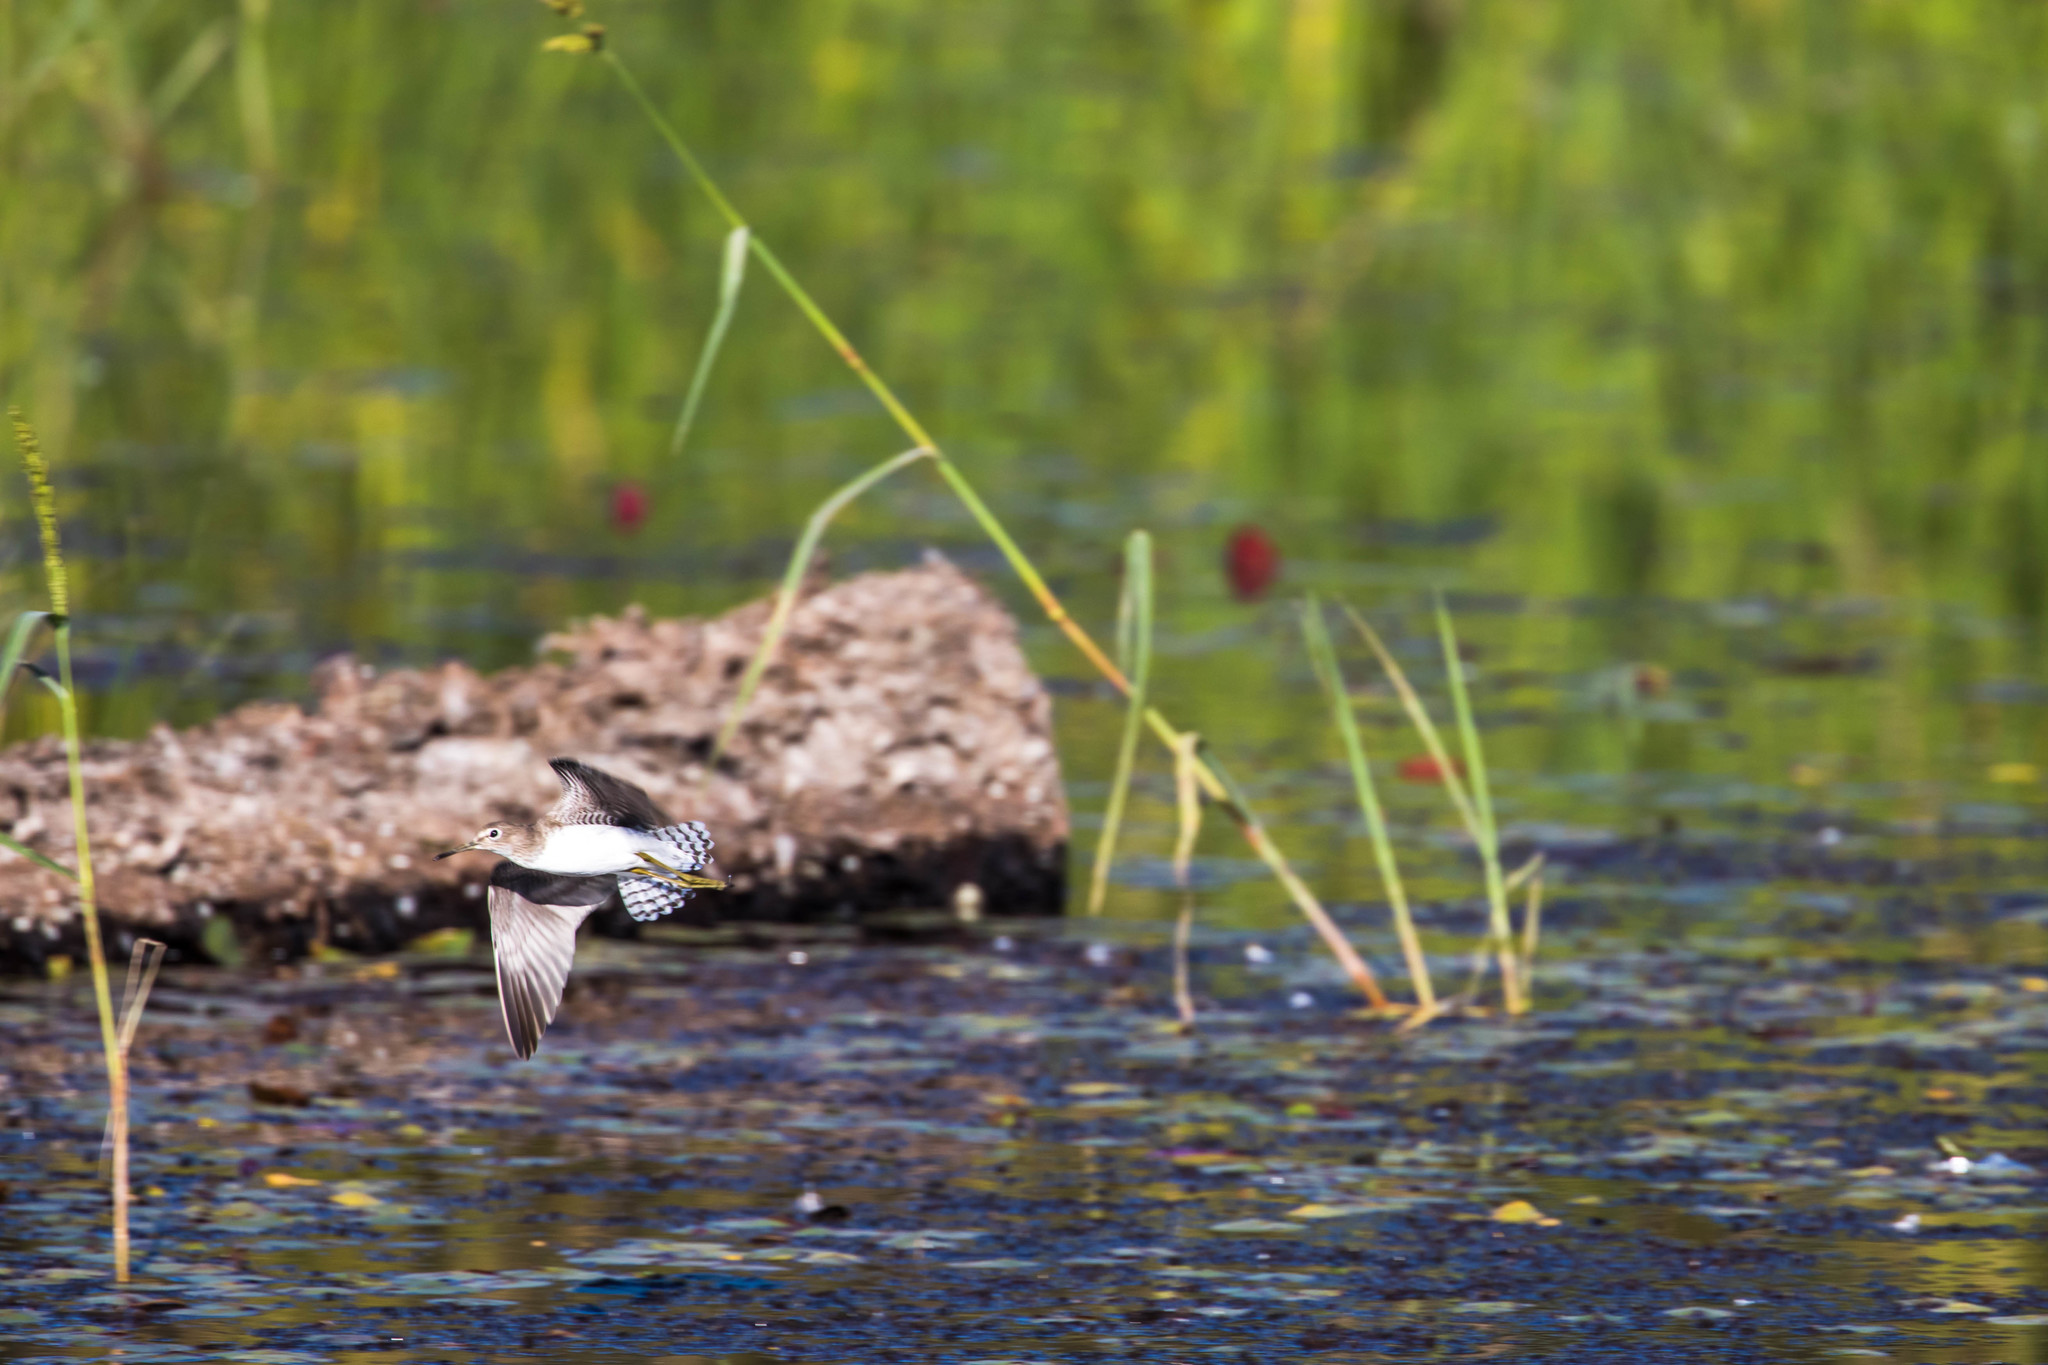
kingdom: Animalia
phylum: Chordata
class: Aves
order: Charadriiformes
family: Scolopacidae
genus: Tringa
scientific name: Tringa solitaria
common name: Solitary sandpiper
